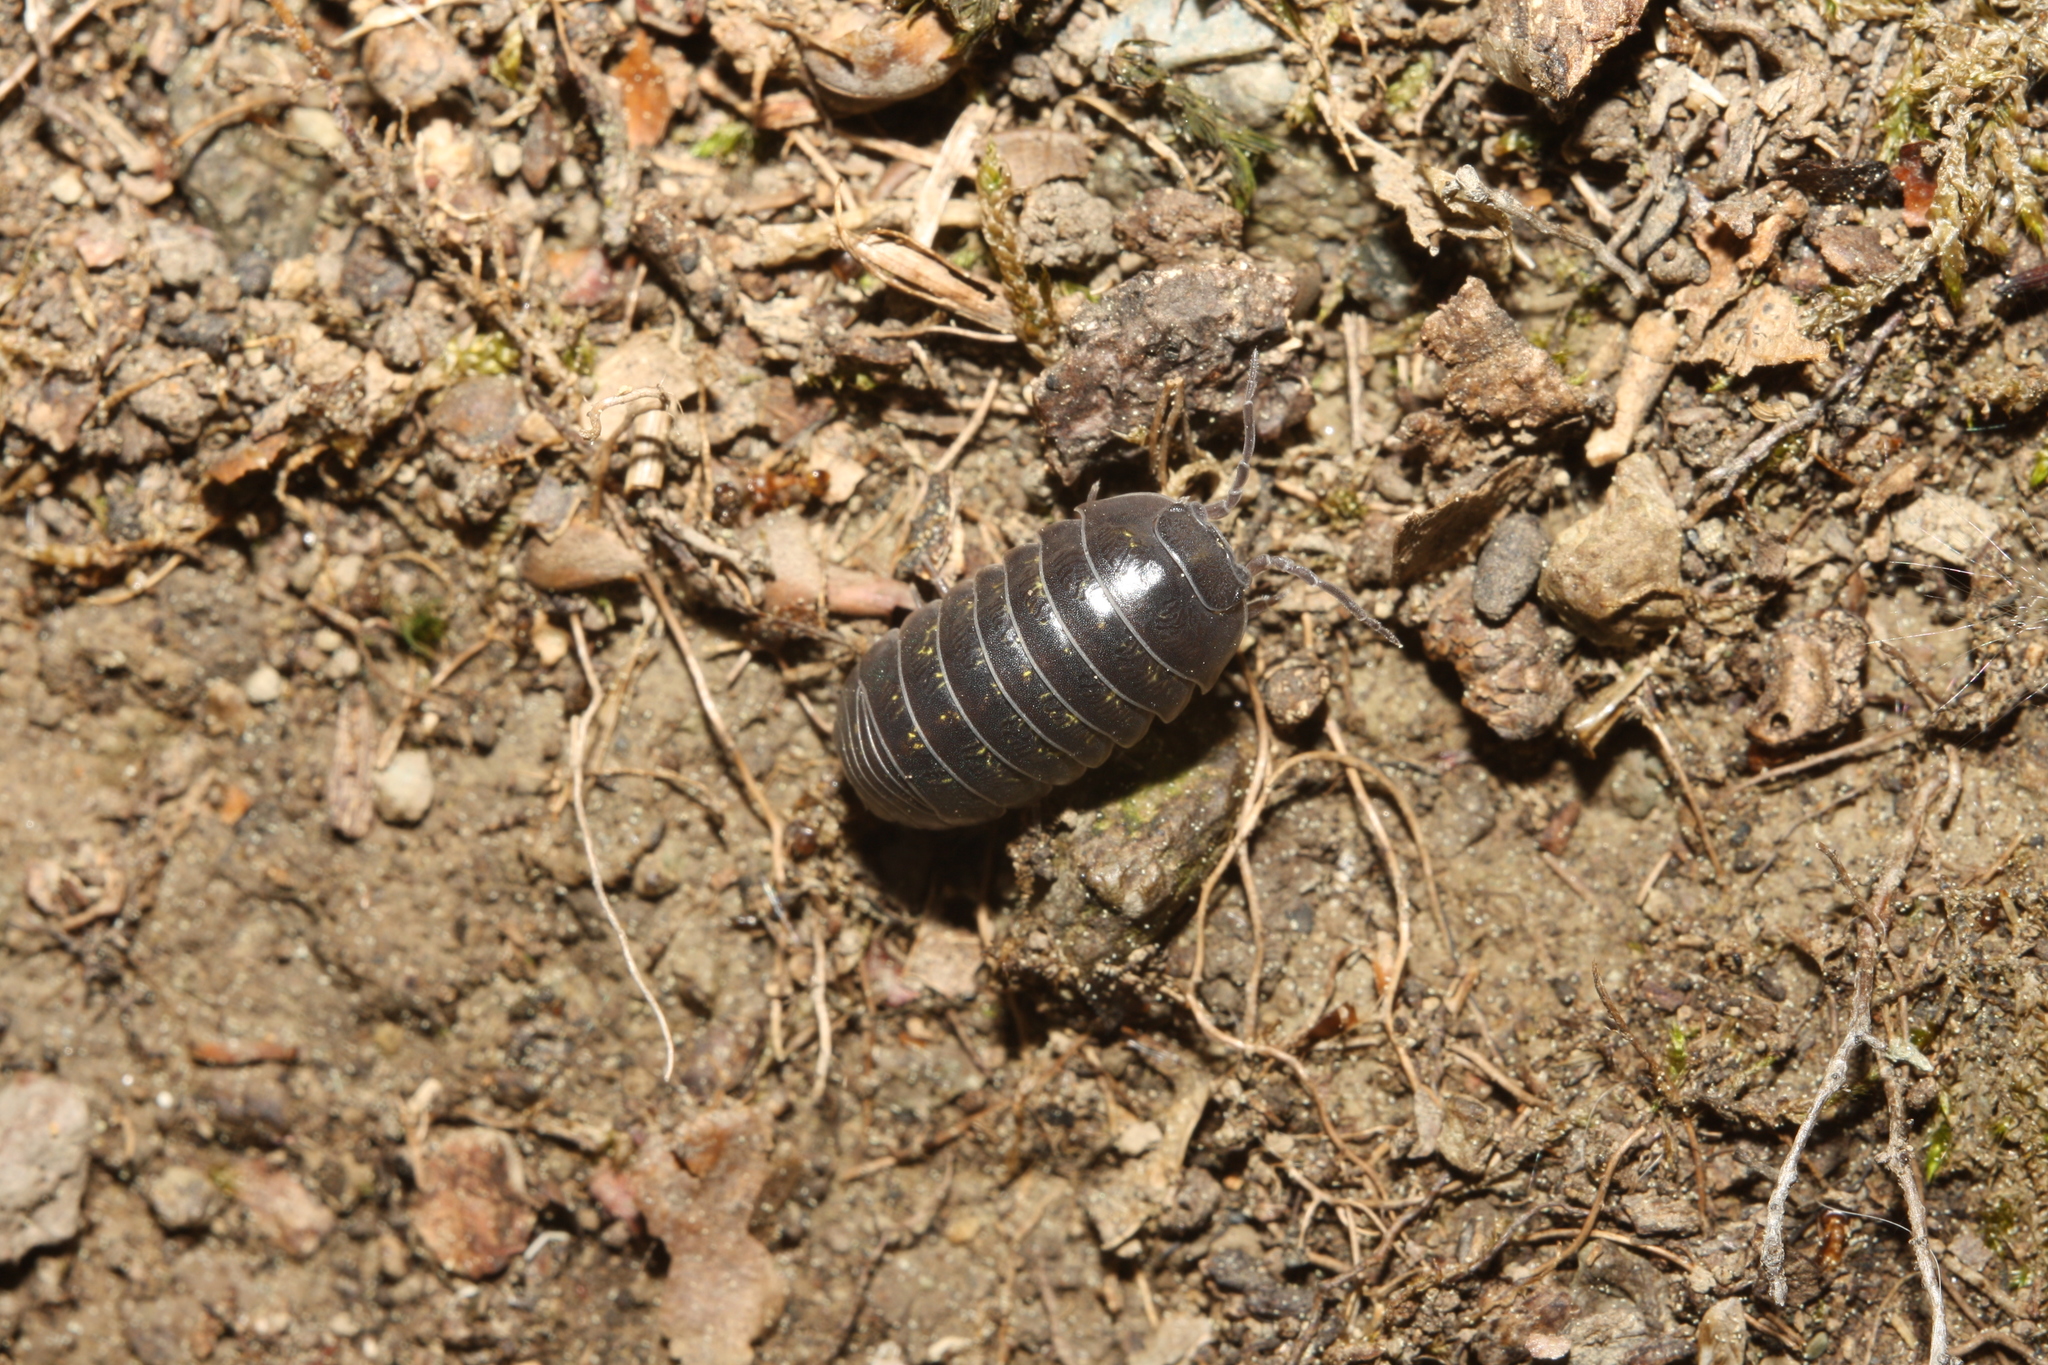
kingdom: Animalia
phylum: Arthropoda
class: Malacostraca
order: Isopoda
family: Armadillidiidae
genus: Armadillidium
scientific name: Armadillidium vulgare
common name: Common pill woodlouse
